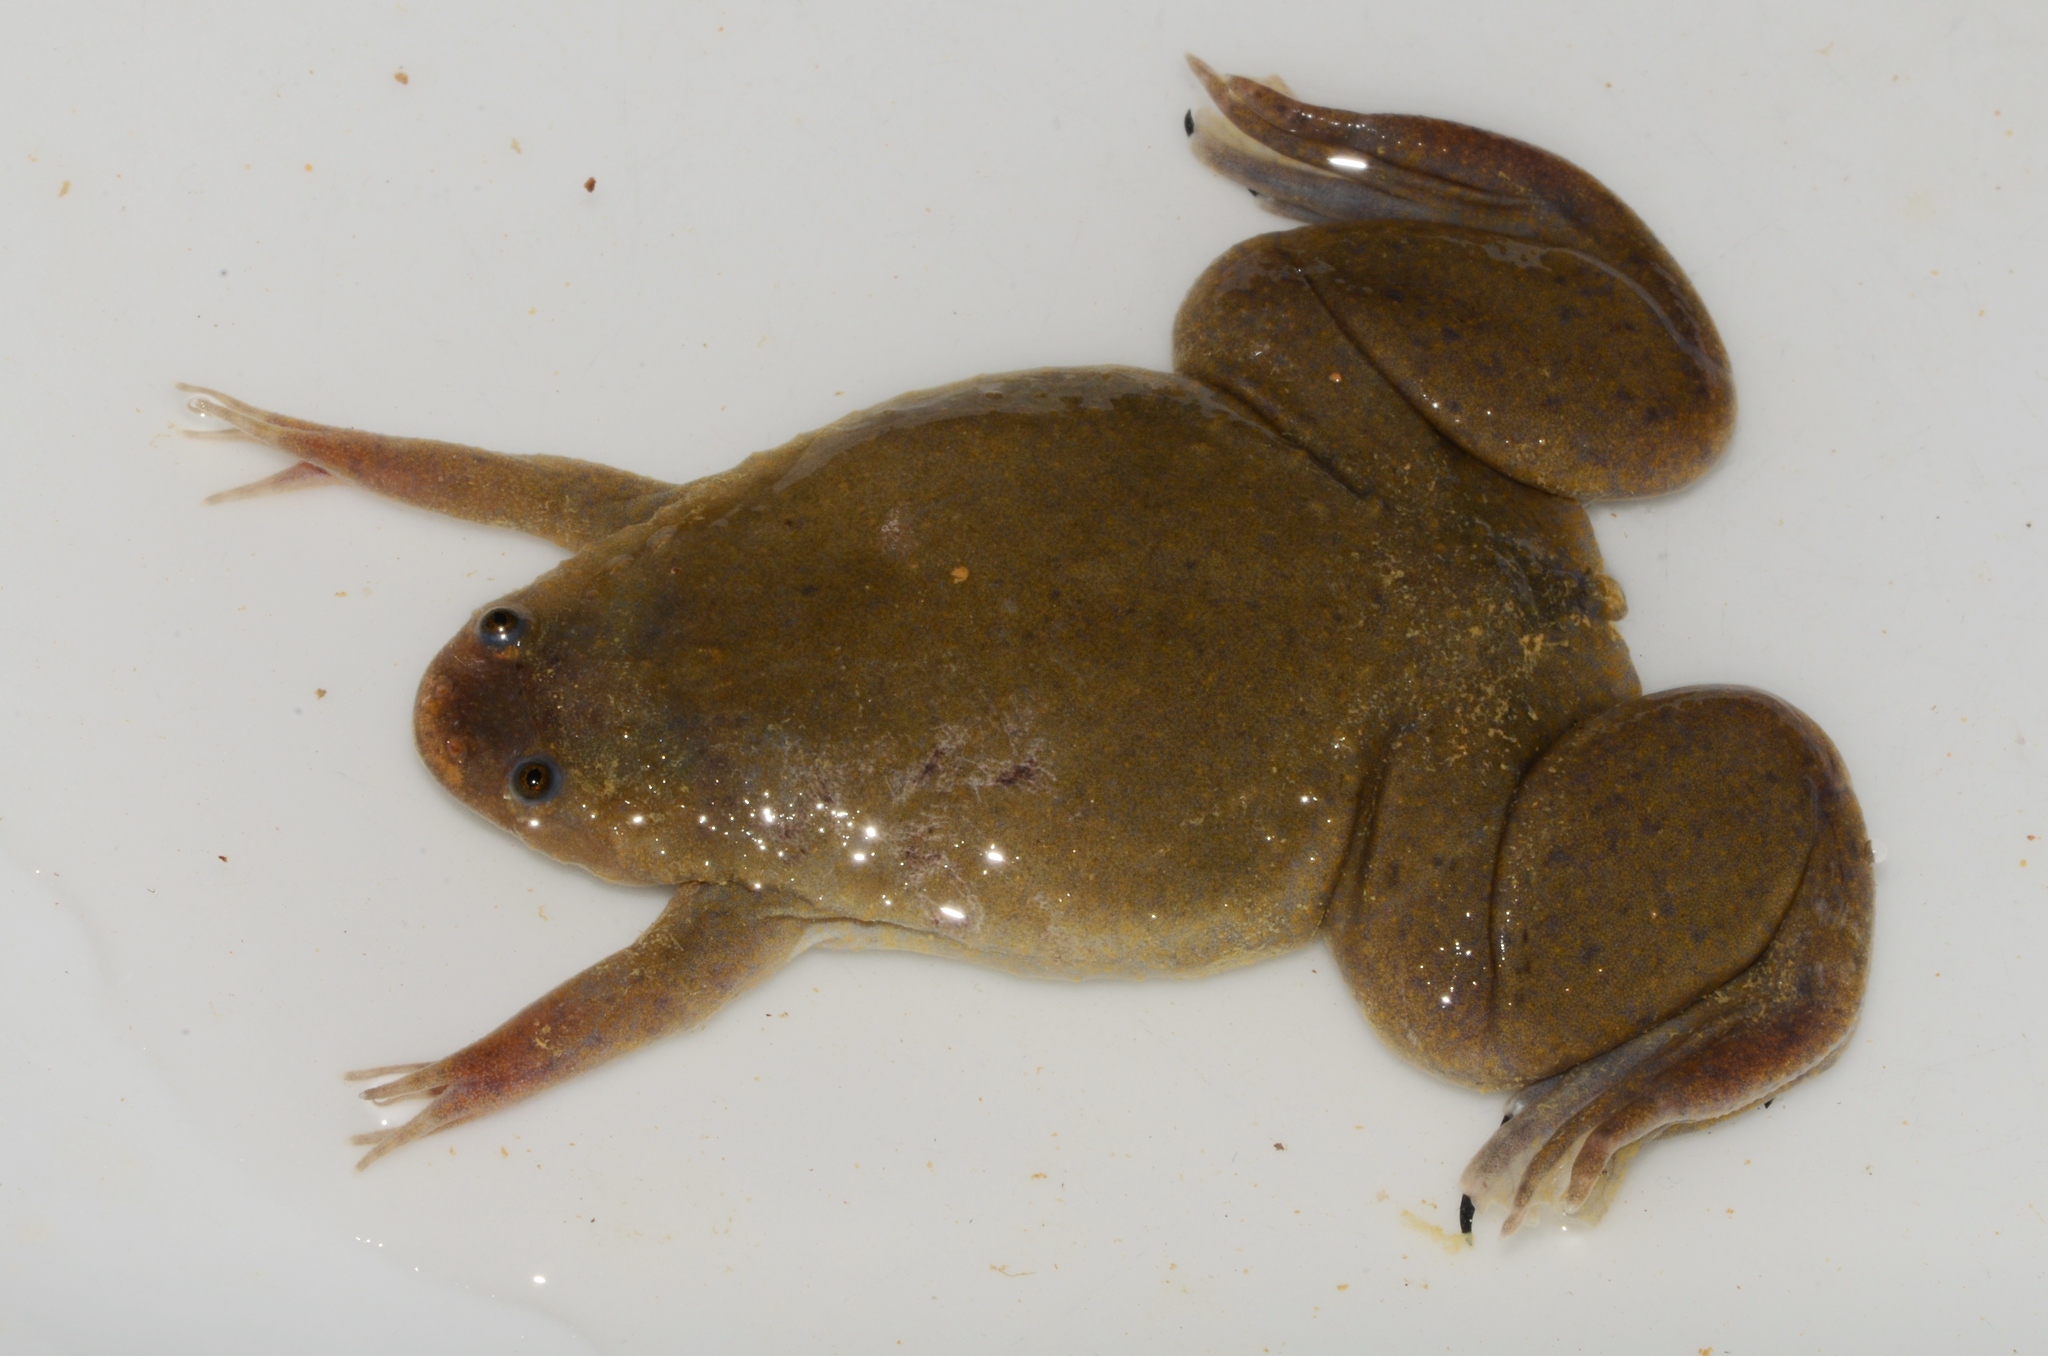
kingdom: Animalia
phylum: Chordata
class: Amphibia
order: Anura
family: Pipidae
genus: Xenopus
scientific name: Xenopus mellotropicalis
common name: Cameroon clawed frog
